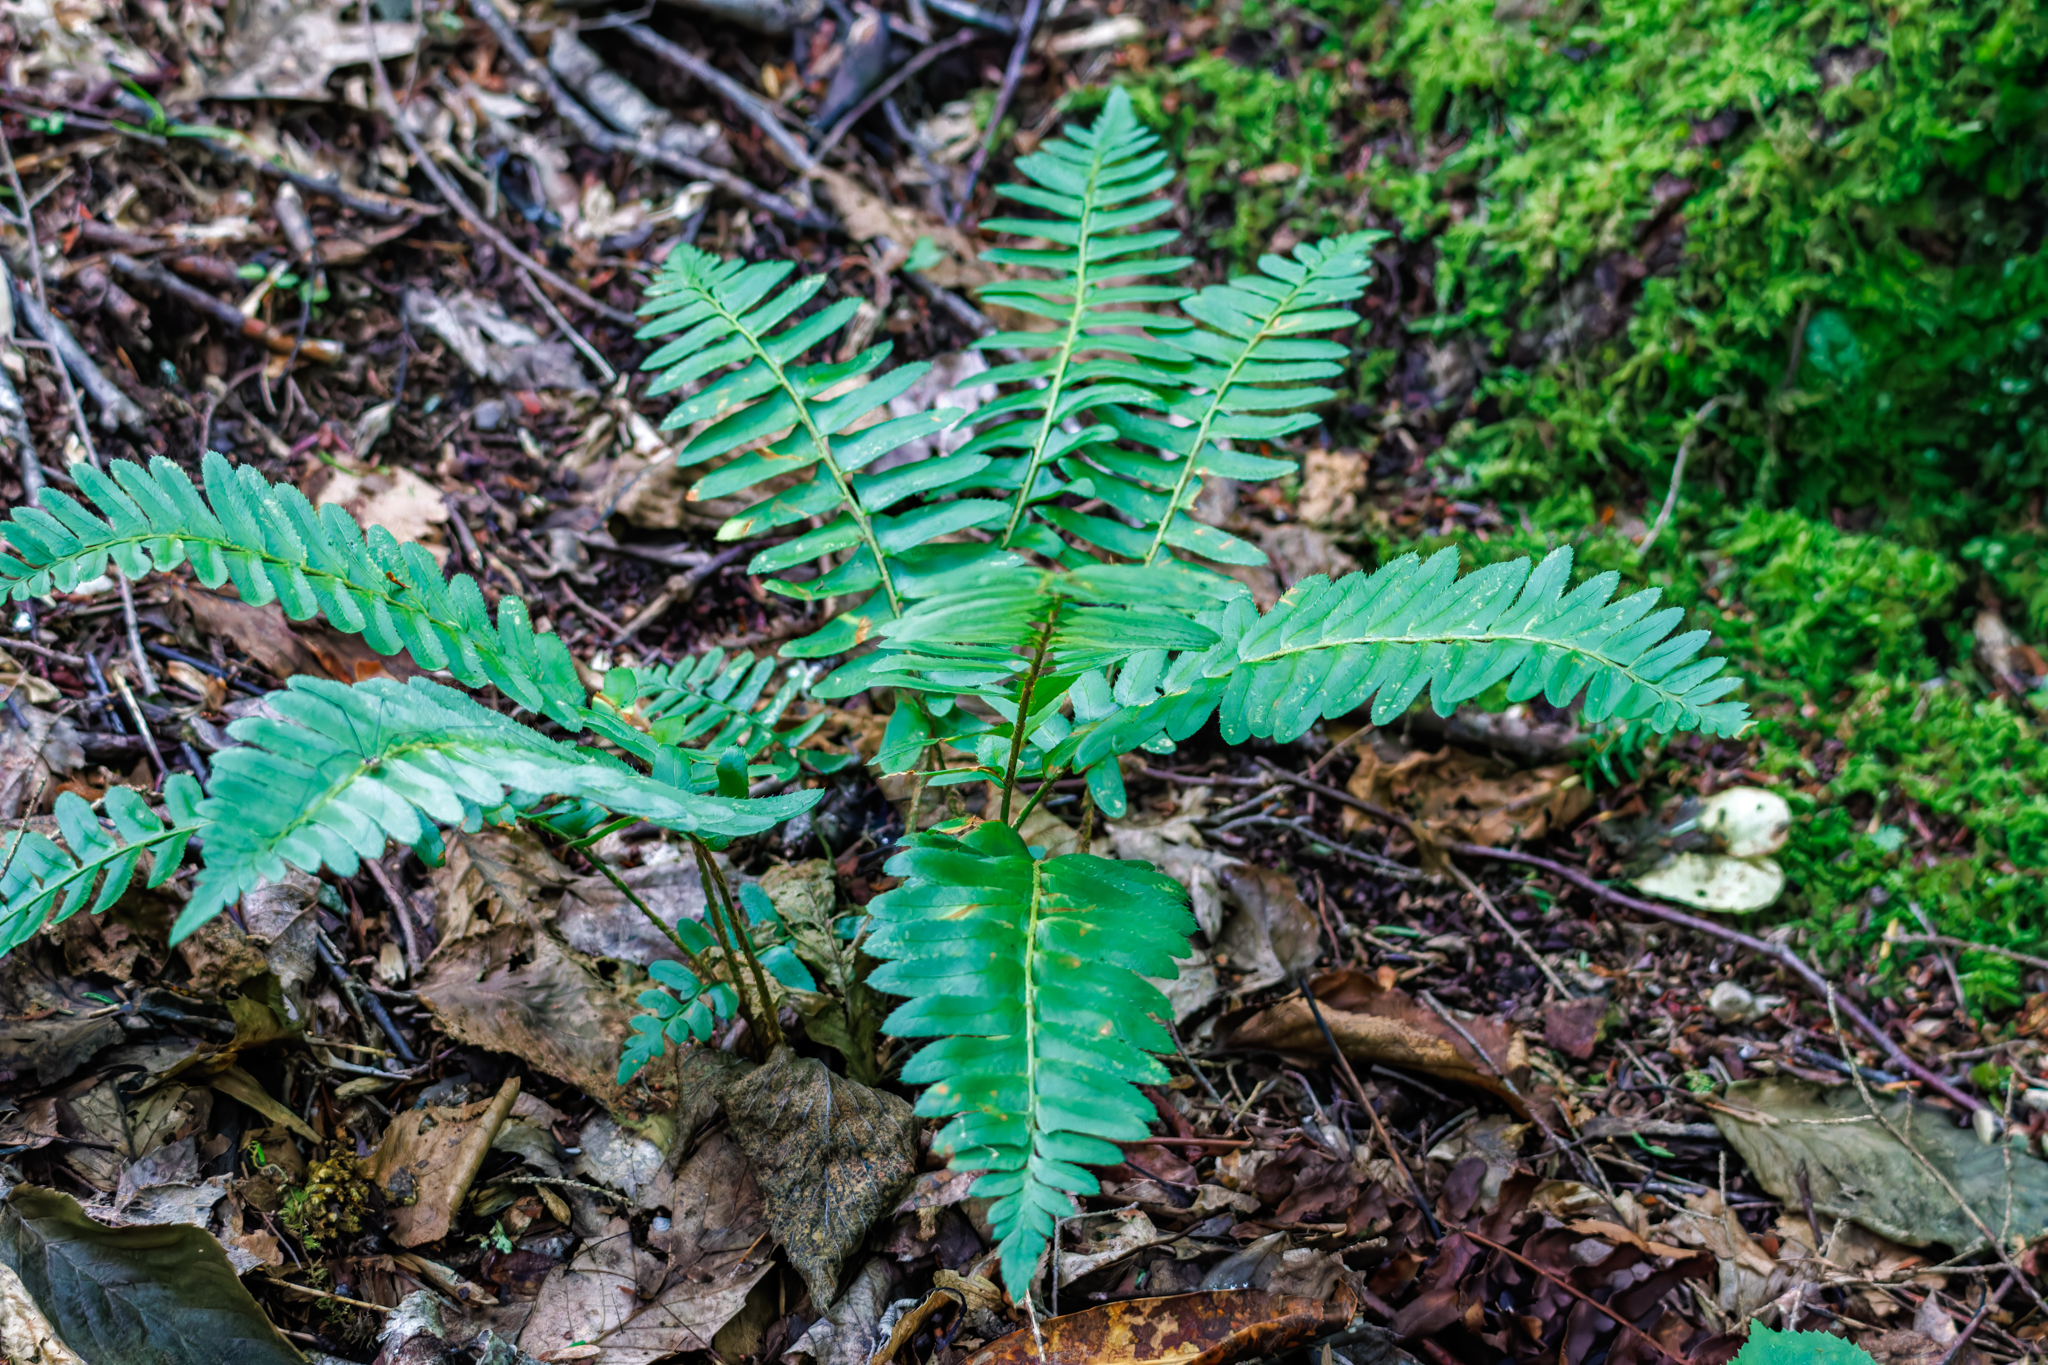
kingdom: Plantae
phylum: Tracheophyta
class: Polypodiopsida
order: Polypodiales
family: Dryopteridaceae
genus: Polystichum
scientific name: Polystichum acrostichoides
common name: Christmas fern
